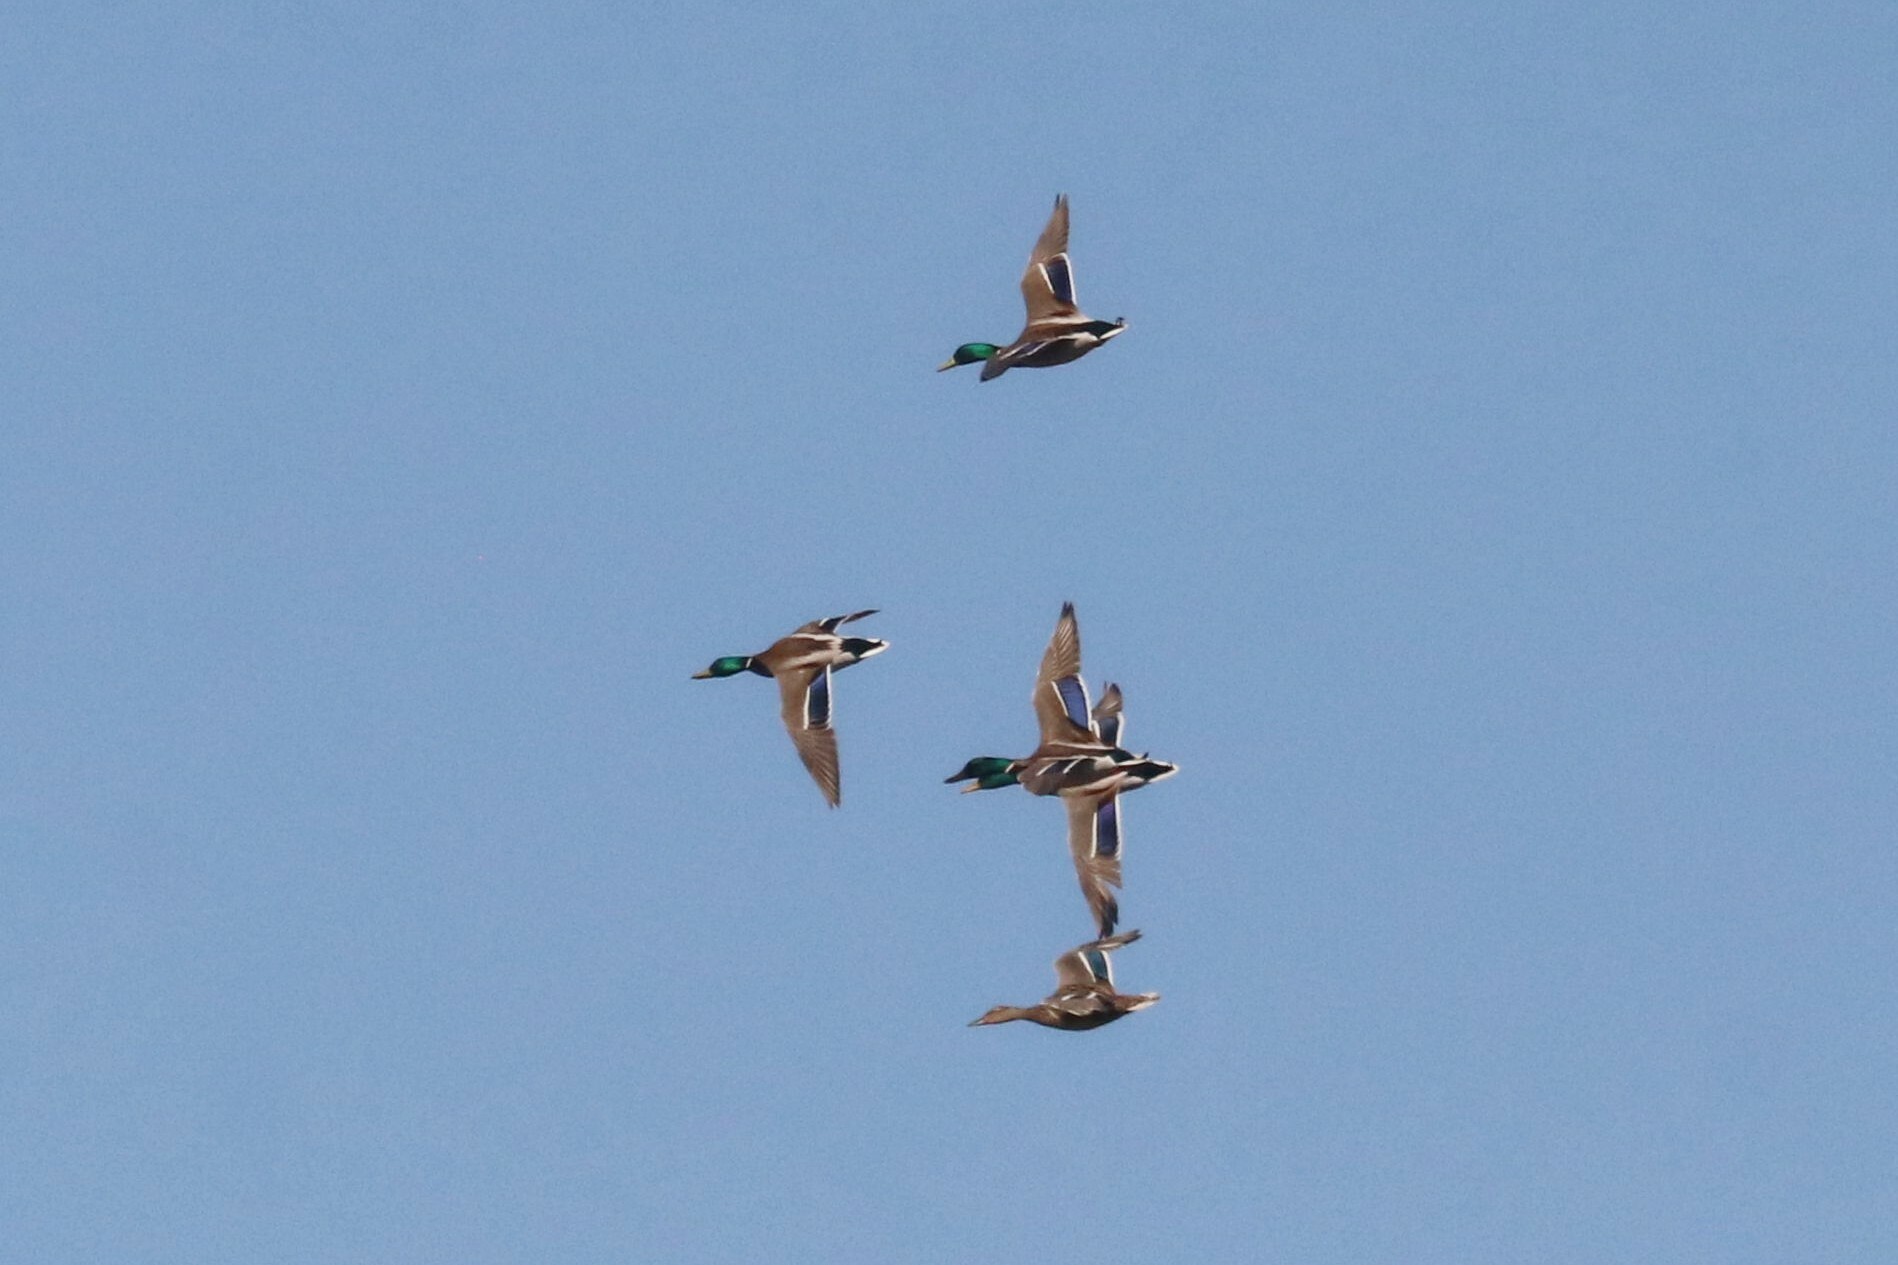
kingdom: Animalia
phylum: Chordata
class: Aves
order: Anseriformes
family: Anatidae
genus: Anas
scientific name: Anas platyrhynchos
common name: Mallard
